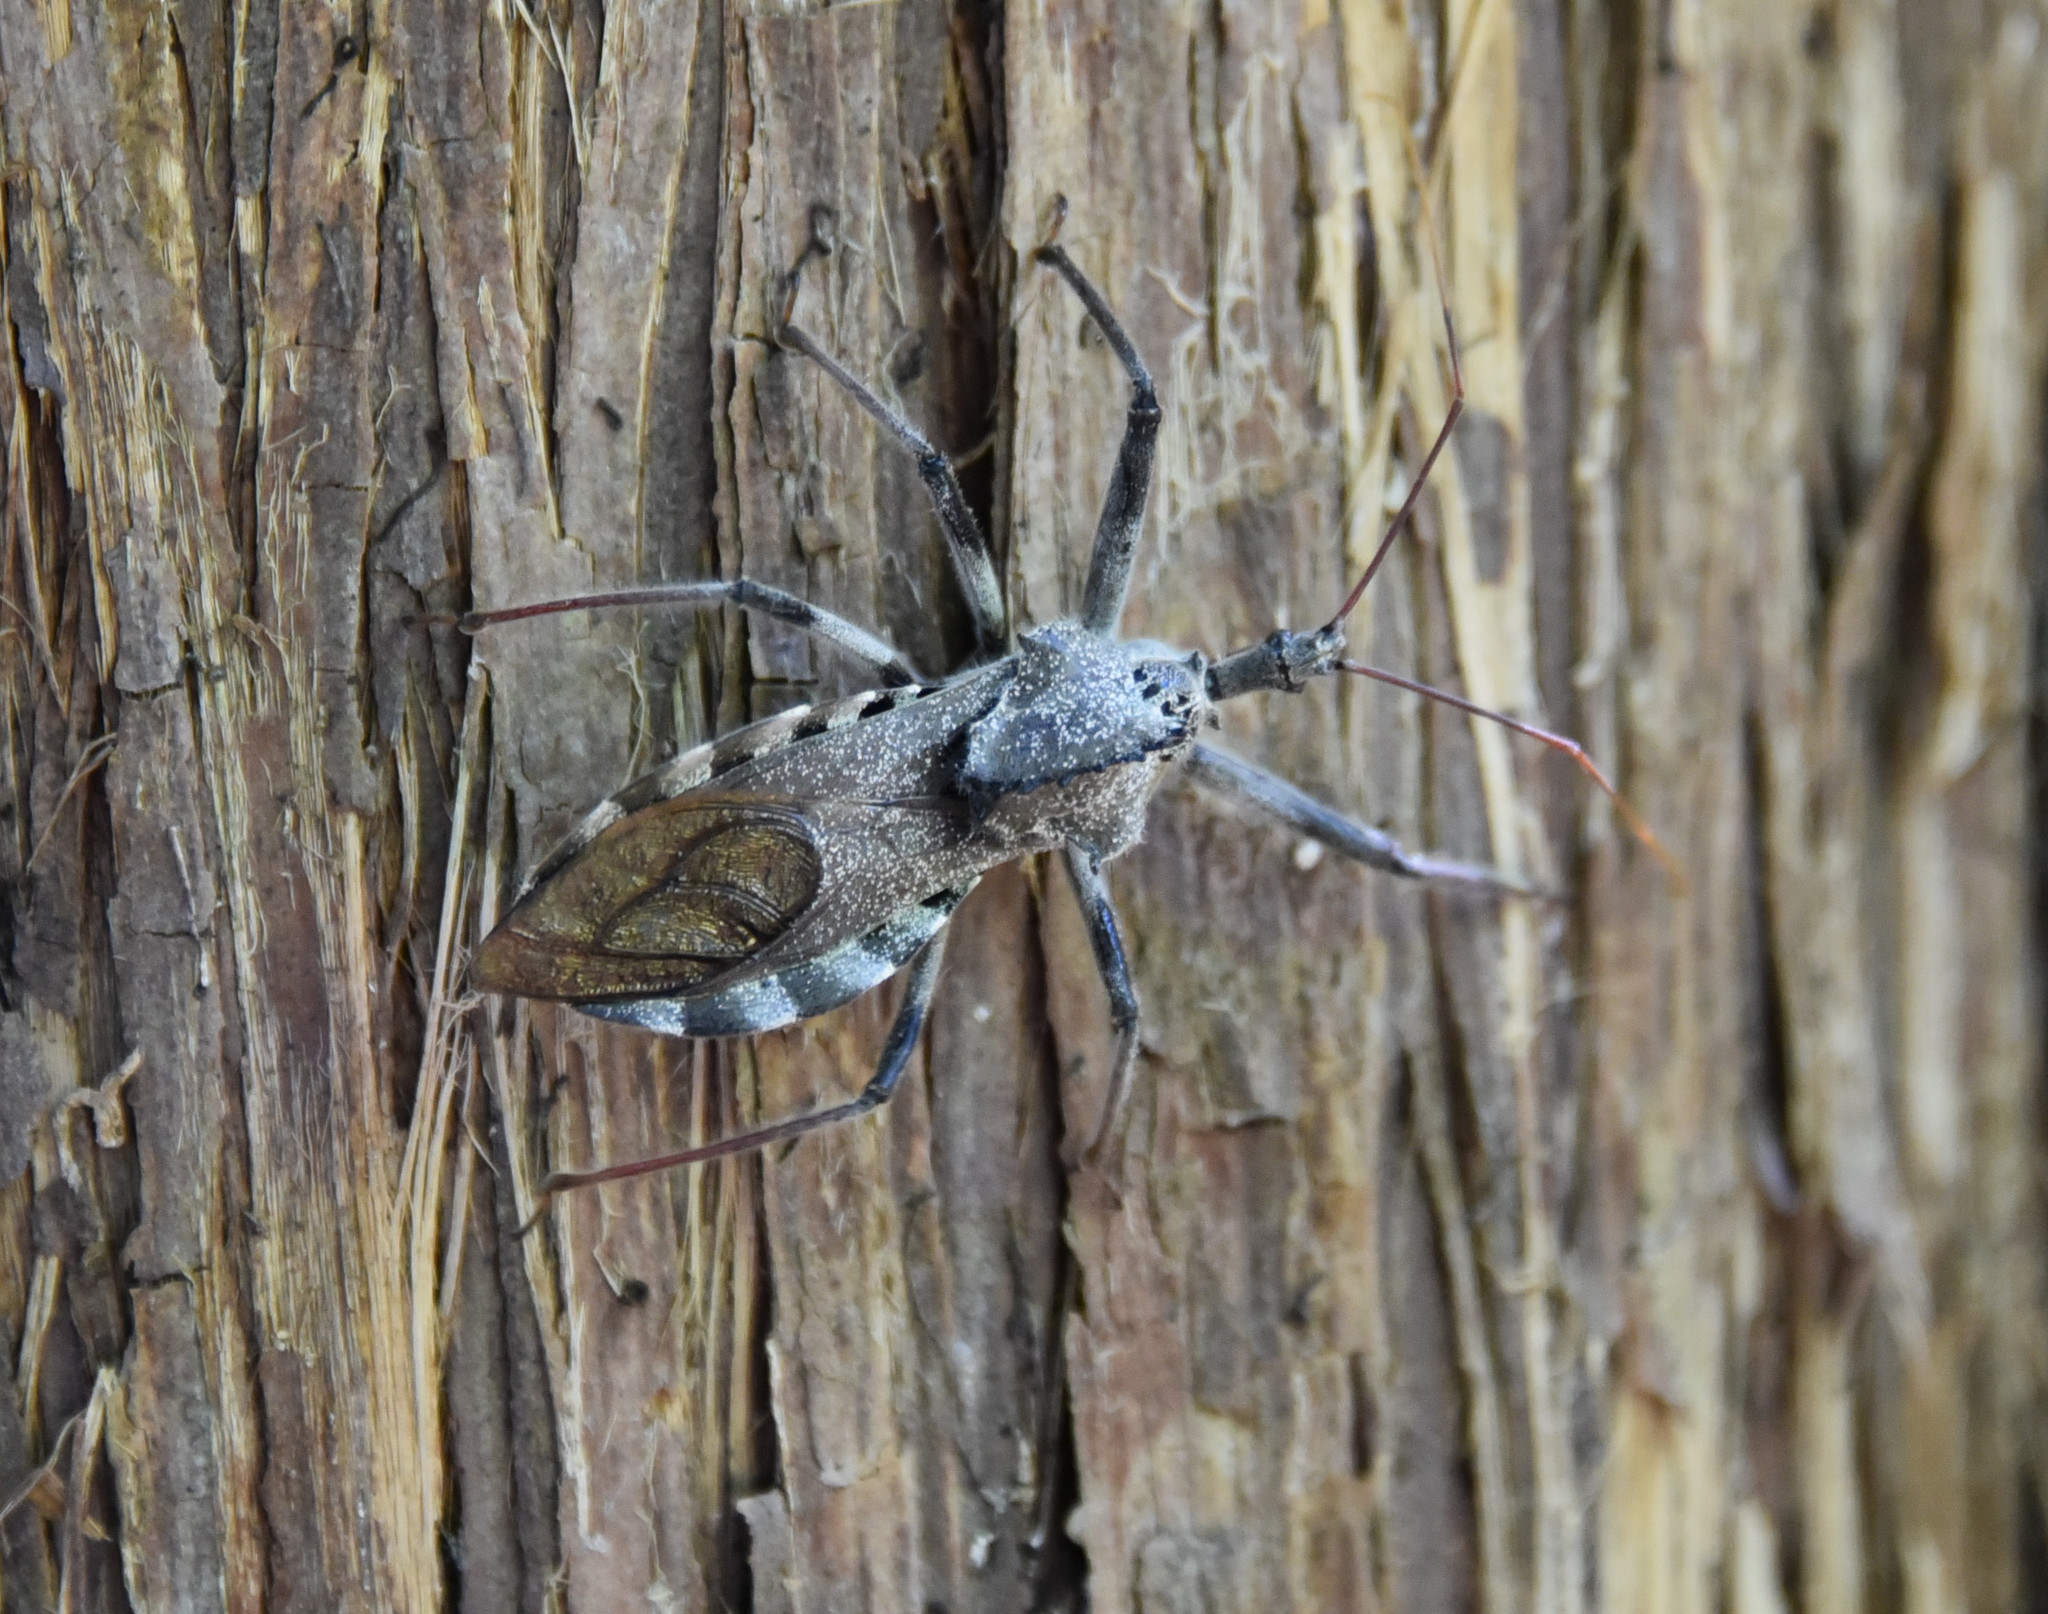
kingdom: Animalia
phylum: Arthropoda
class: Insecta
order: Hemiptera
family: Reduviidae
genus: Arilus
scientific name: Arilus cristatus
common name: North american wheel bug
